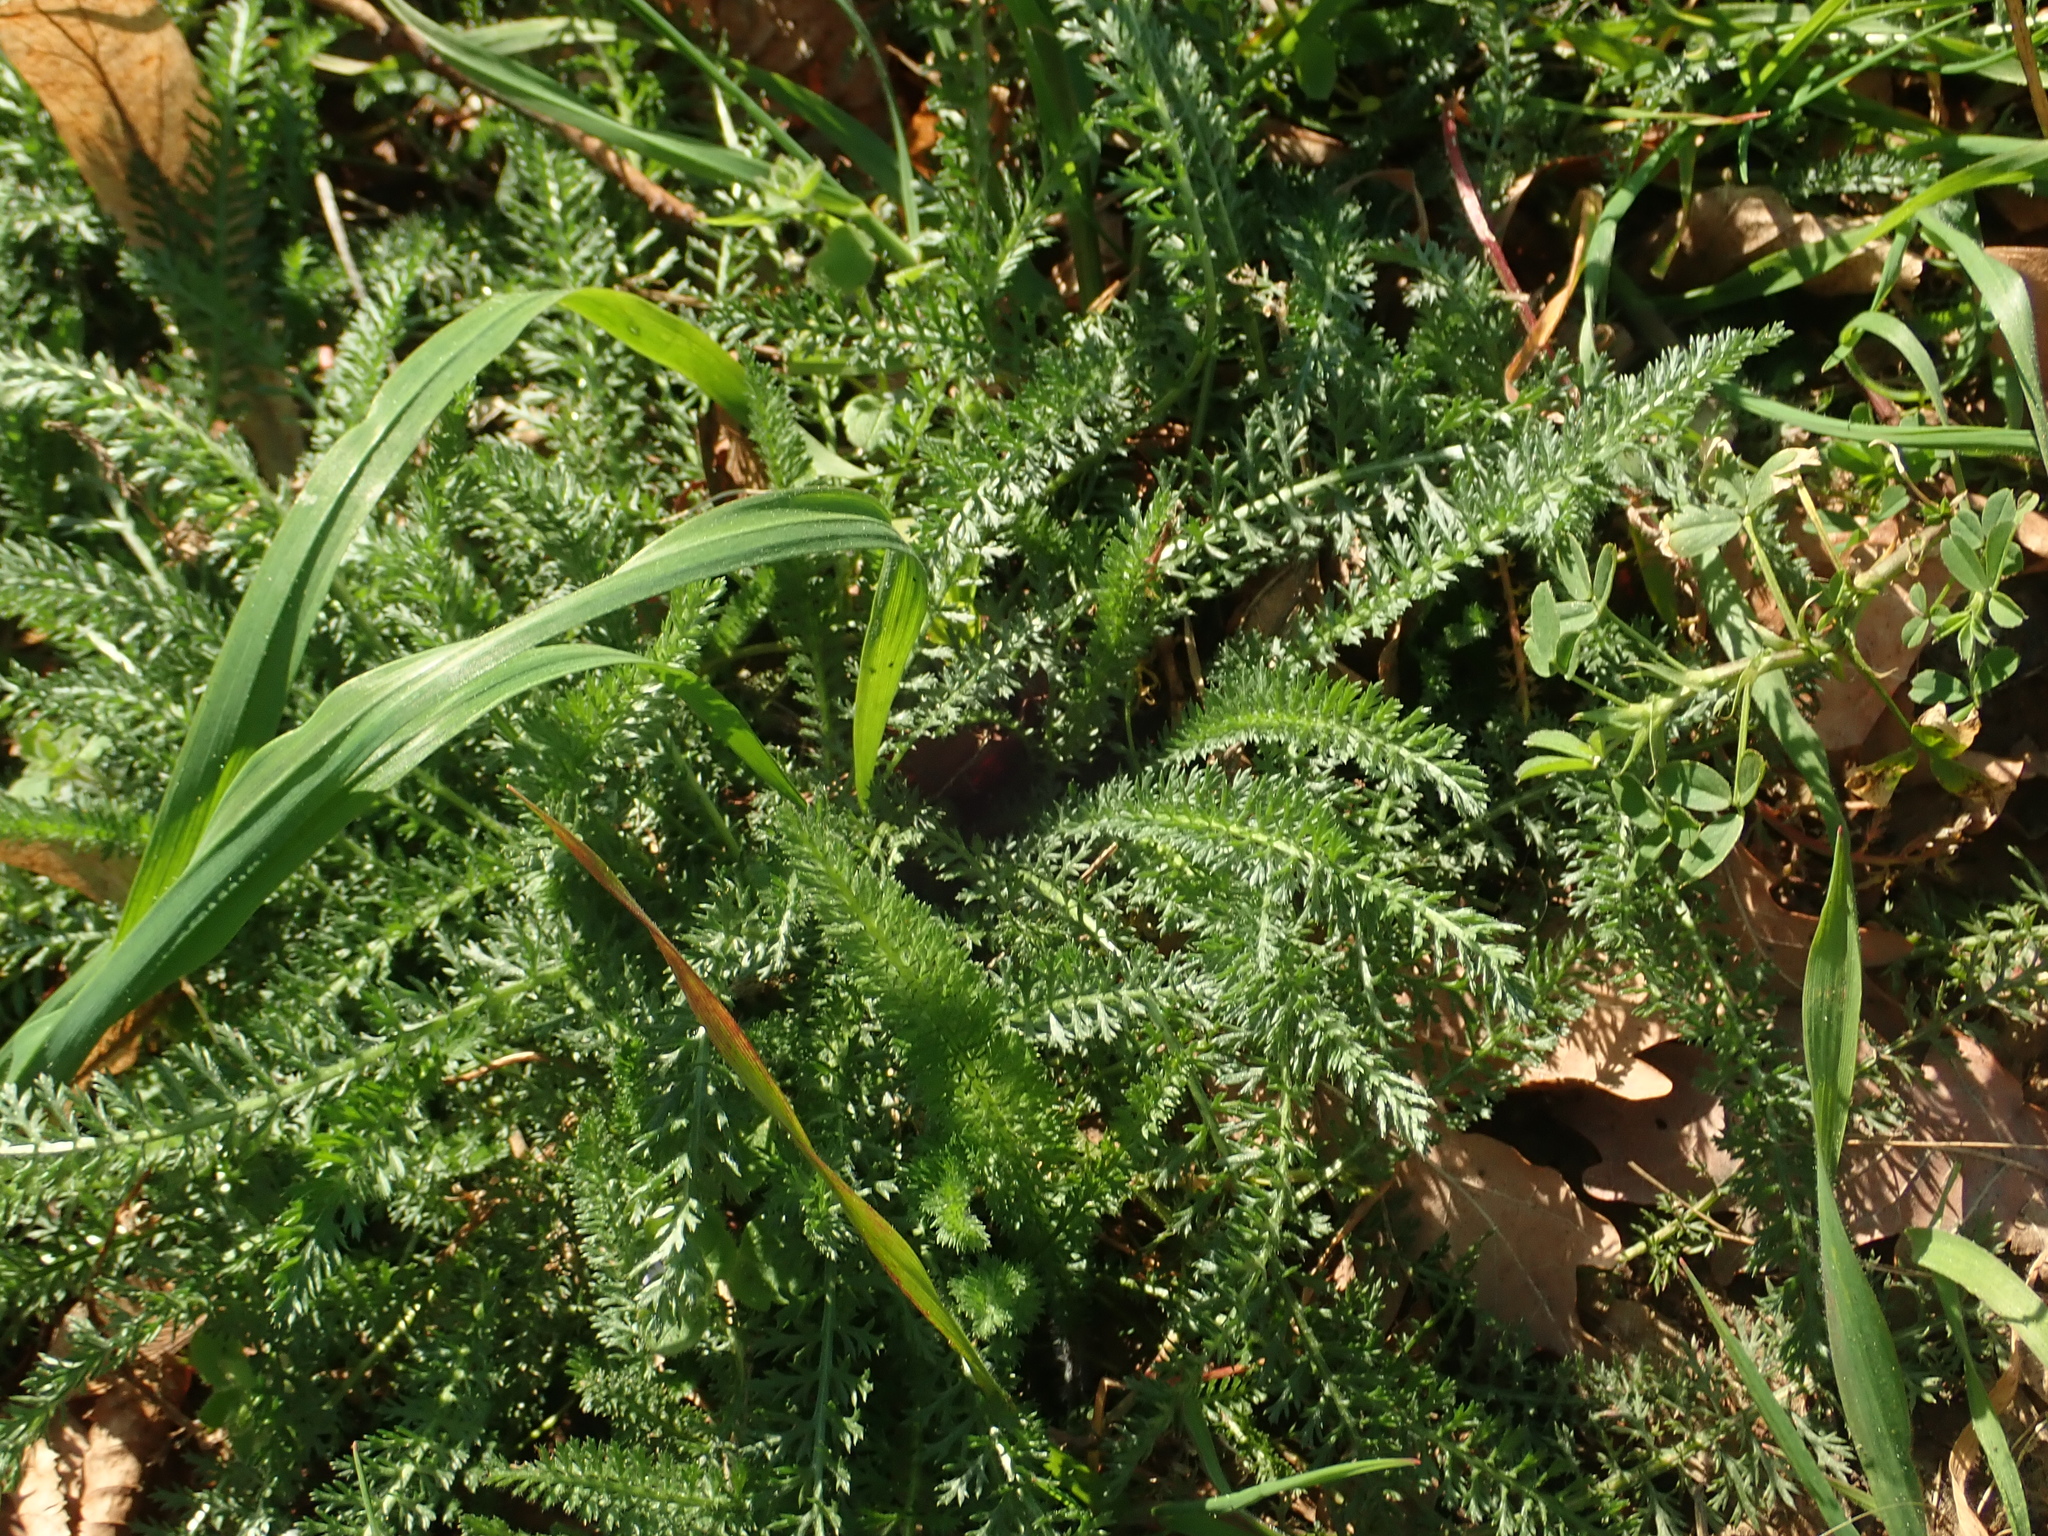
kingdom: Plantae
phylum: Tracheophyta
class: Magnoliopsida
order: Asterales
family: Asteraceae
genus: Achillea
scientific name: Achillea millefolium
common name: Yarrow
